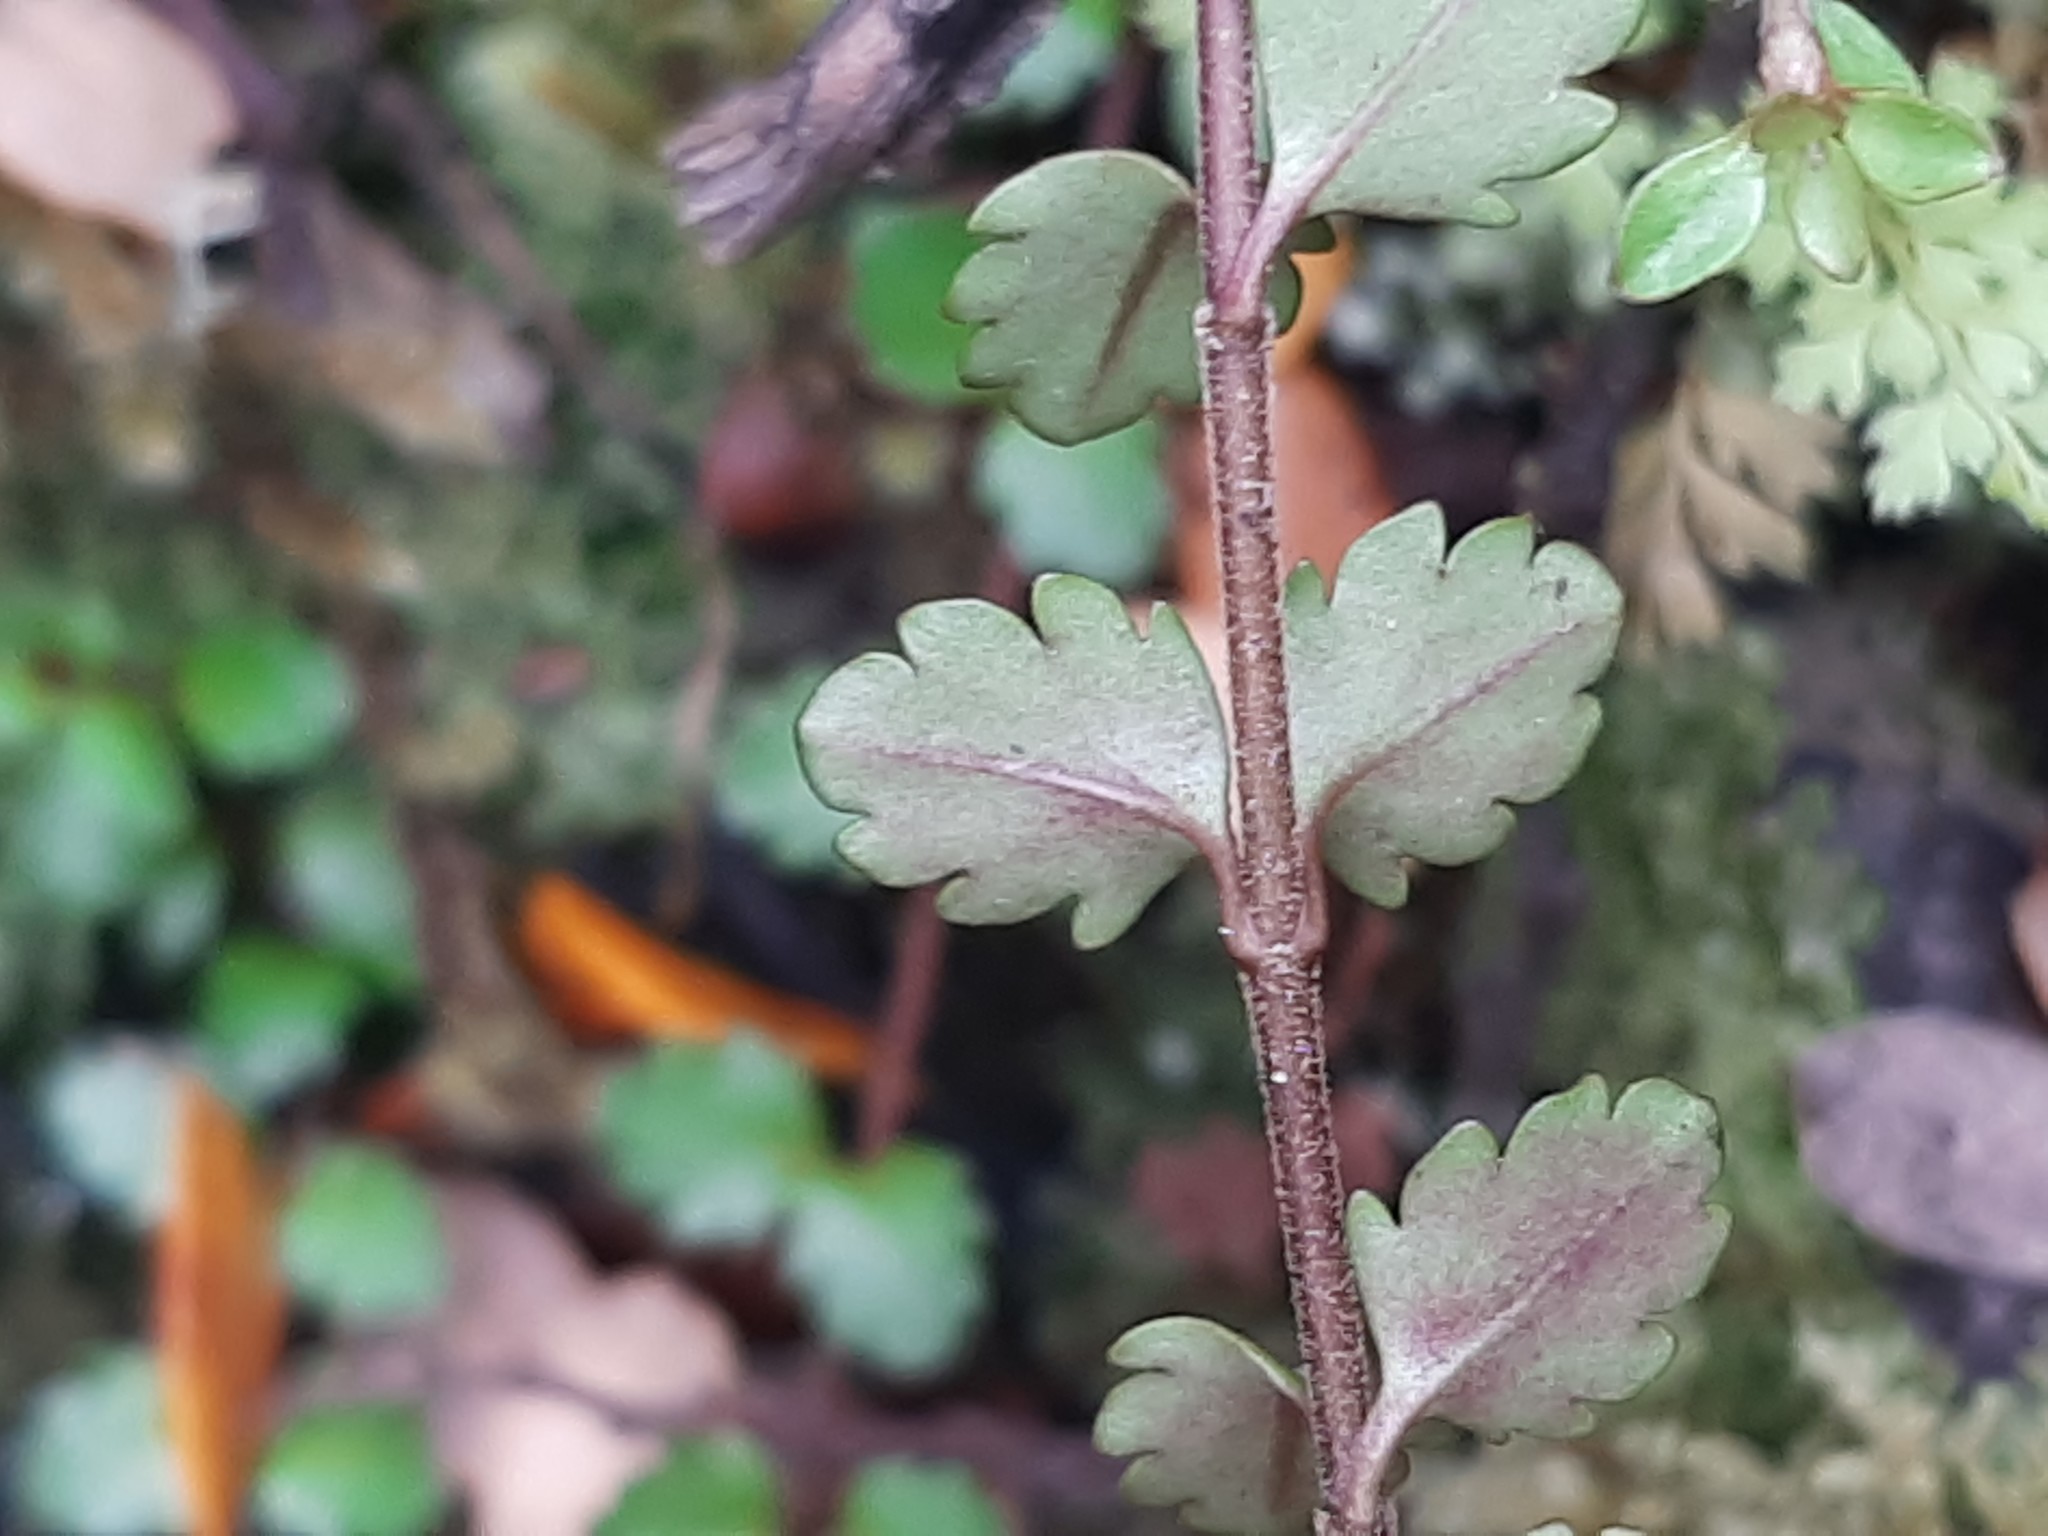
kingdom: Plantae
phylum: Tracheophyta
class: Magnoliopsida
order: Lamiales
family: Plantaginaceae
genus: Veronica
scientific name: Veronica lyallii
